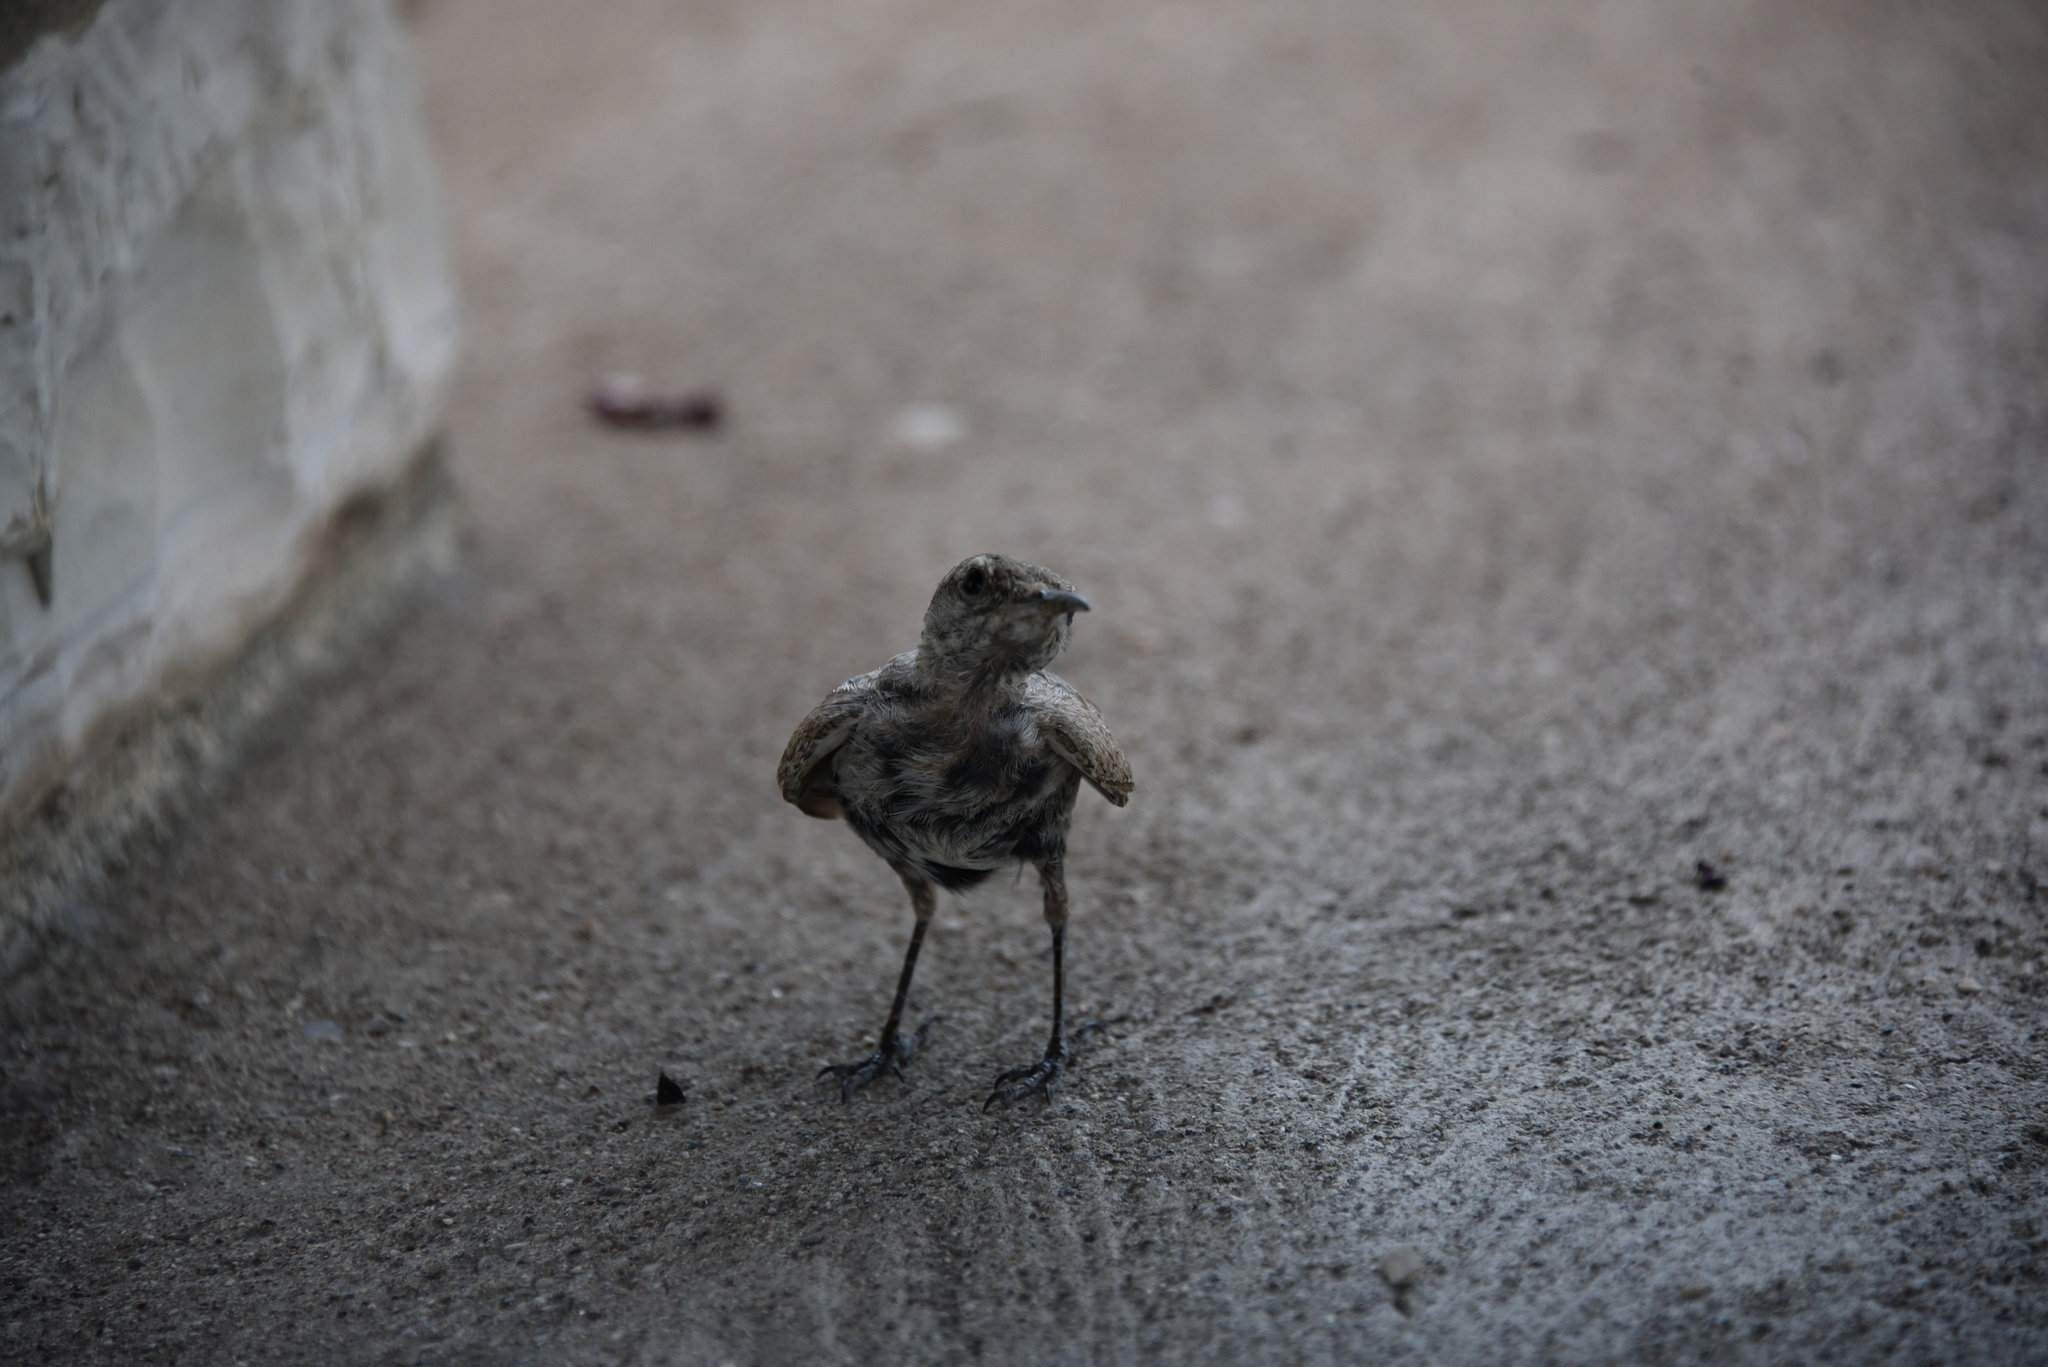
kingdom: Animalia
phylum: Chordata
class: Aves
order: Passeriformes
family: Troglodytidae
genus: Salpinctes
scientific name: Salpinctes obsoletus
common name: Rock wren
